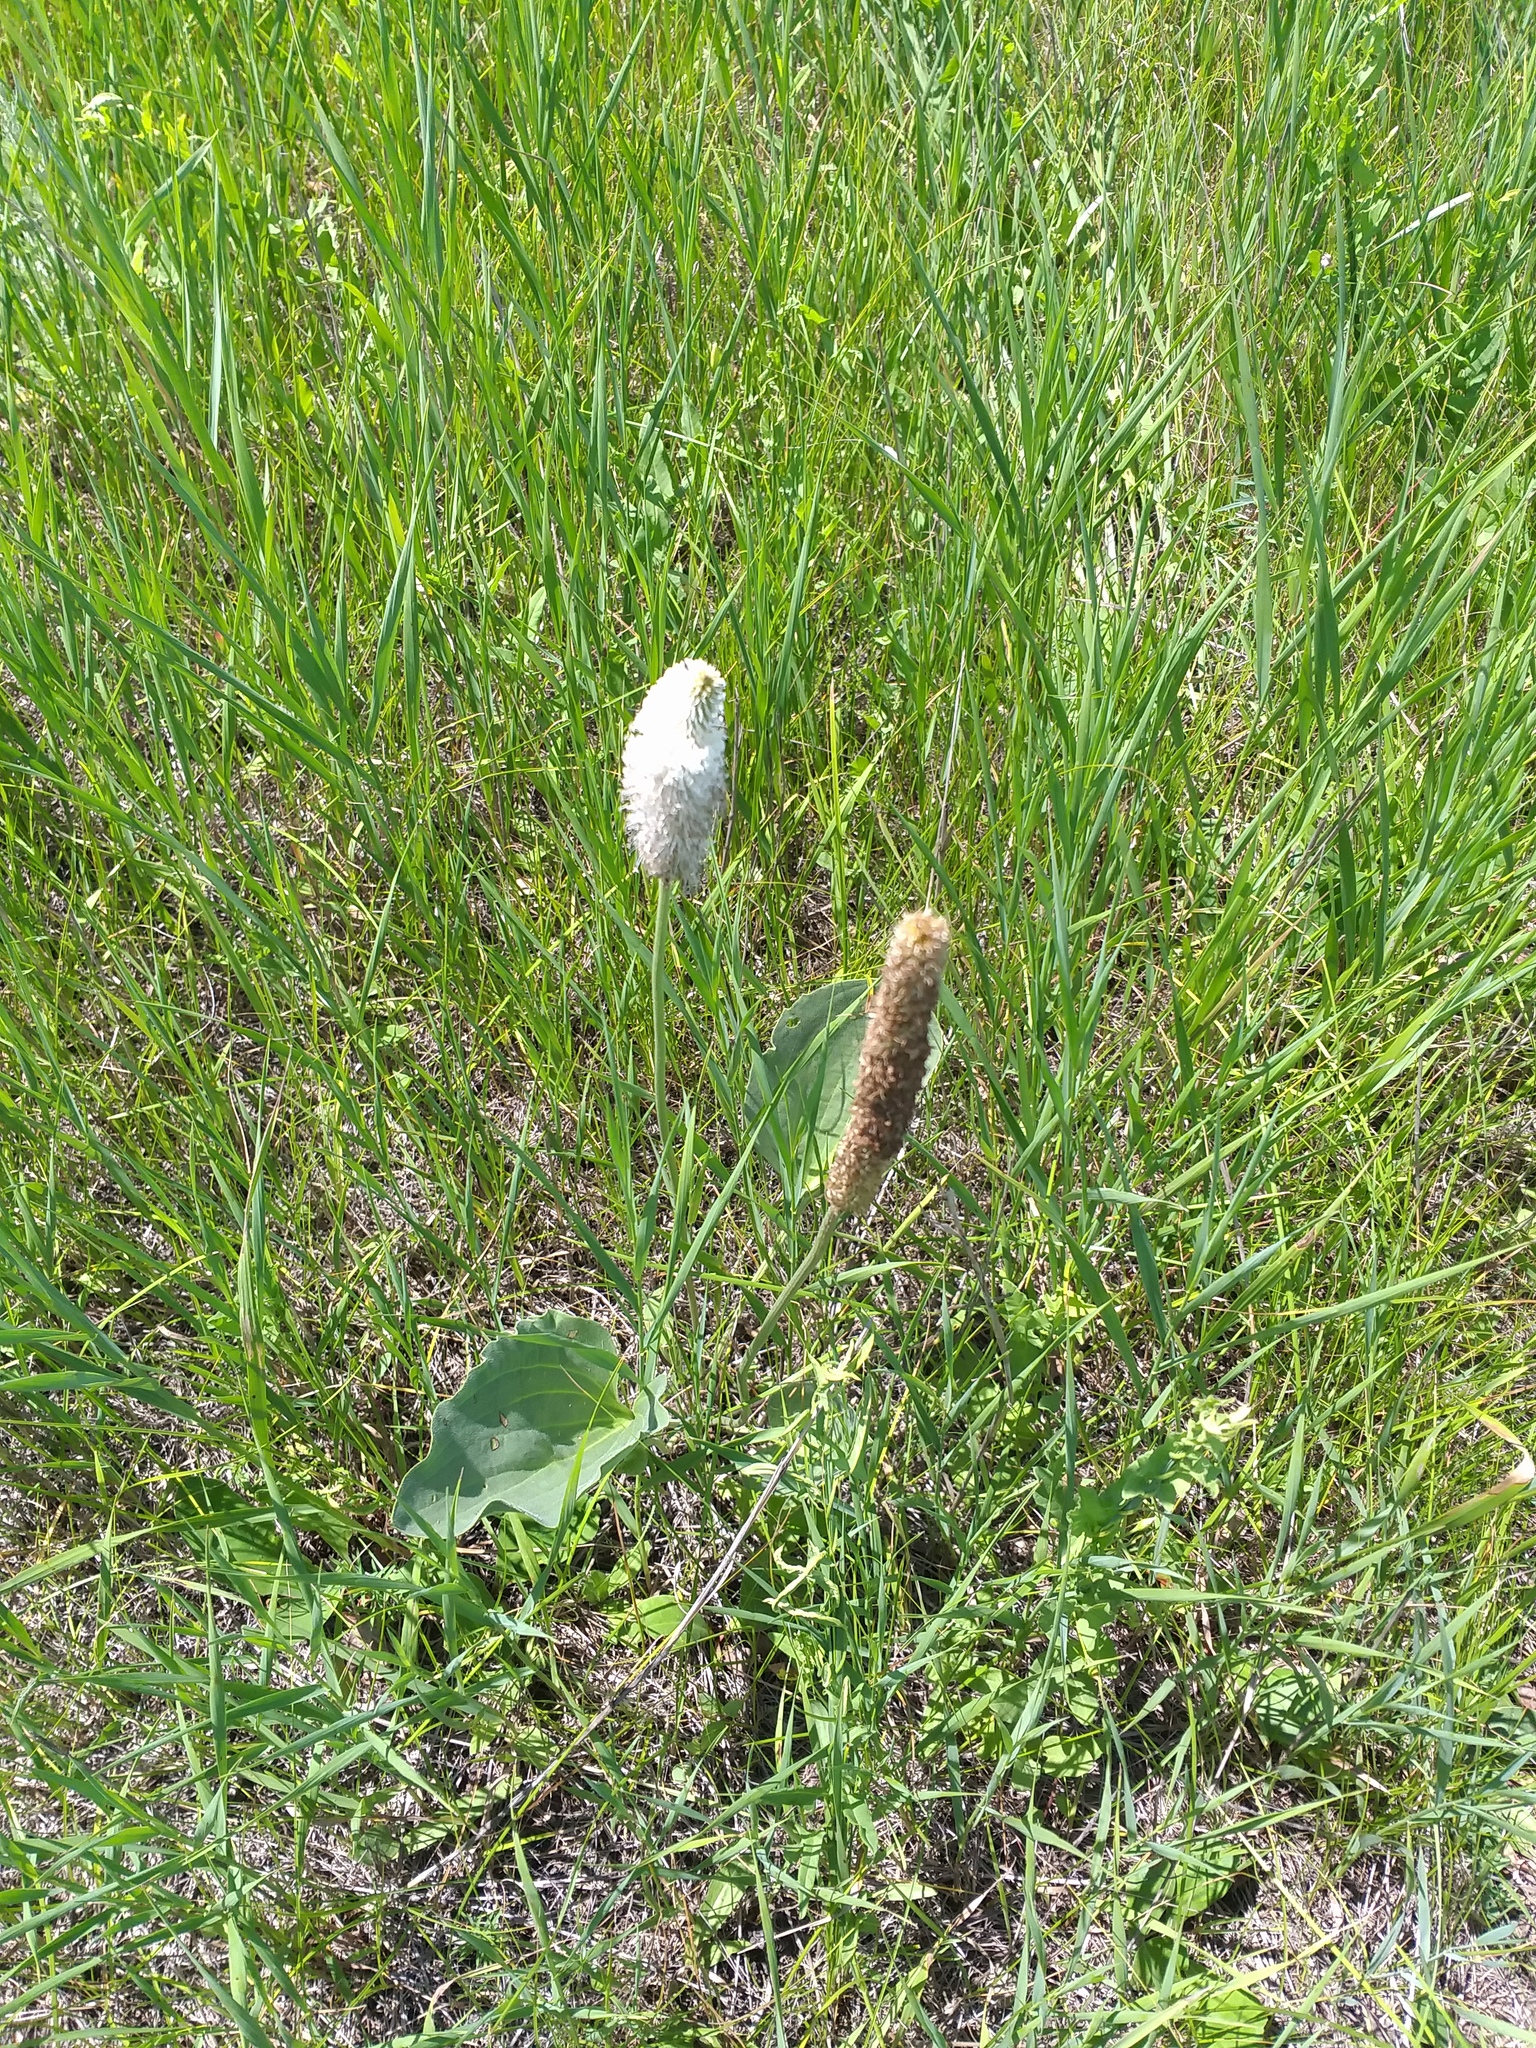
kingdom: Plantae
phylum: Tracheophyta
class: Magnoliopsida
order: Lamiales
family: Plantaginaceae
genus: Plantago
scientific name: Plantago maxima
